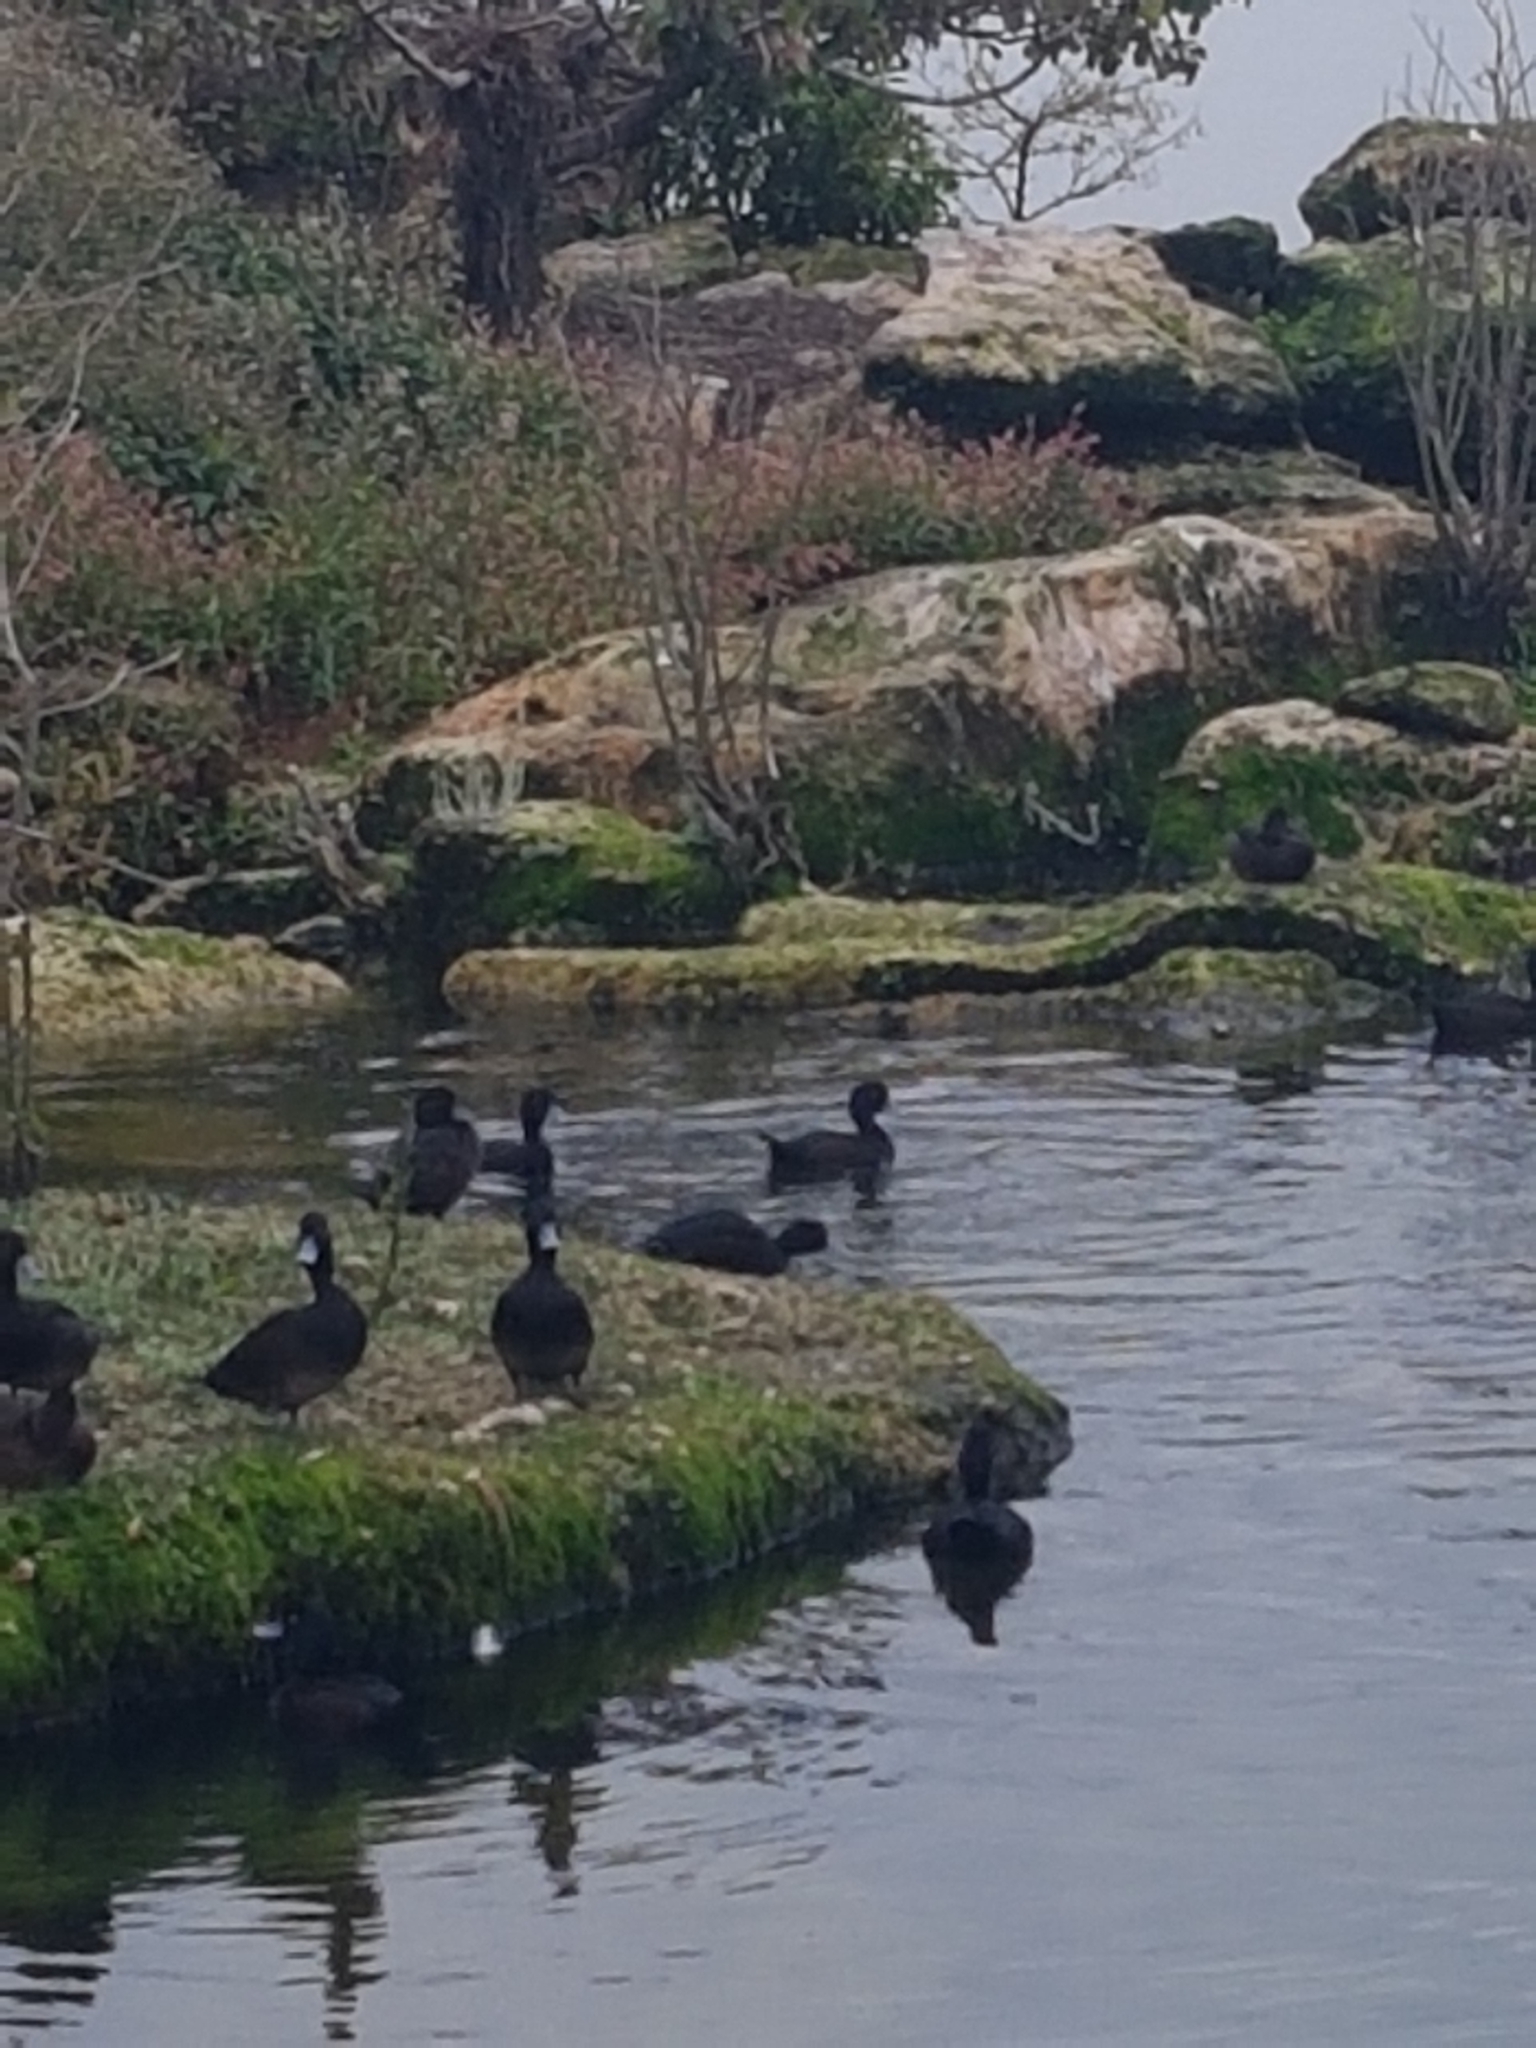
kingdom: Animalia
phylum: Chordata
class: Aves
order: Anseriformes
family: Anatidae
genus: Aythya
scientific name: Aythya novaeseelandiae
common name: New zealand scaup
